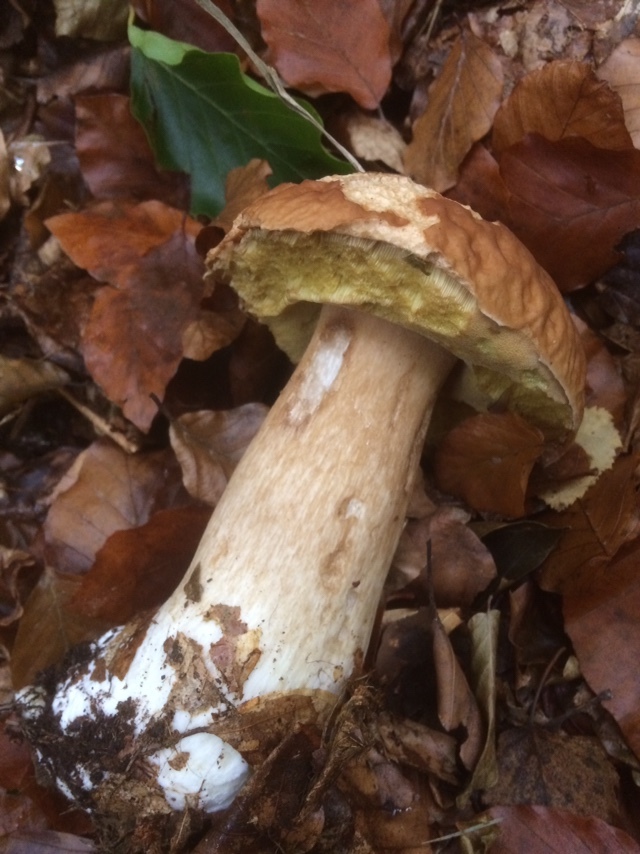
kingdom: Fungi
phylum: Basidiomycota
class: Agaricomycetes
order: Boletales
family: Boletaceae
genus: Boletus
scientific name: Boletus edulis
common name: Cep
